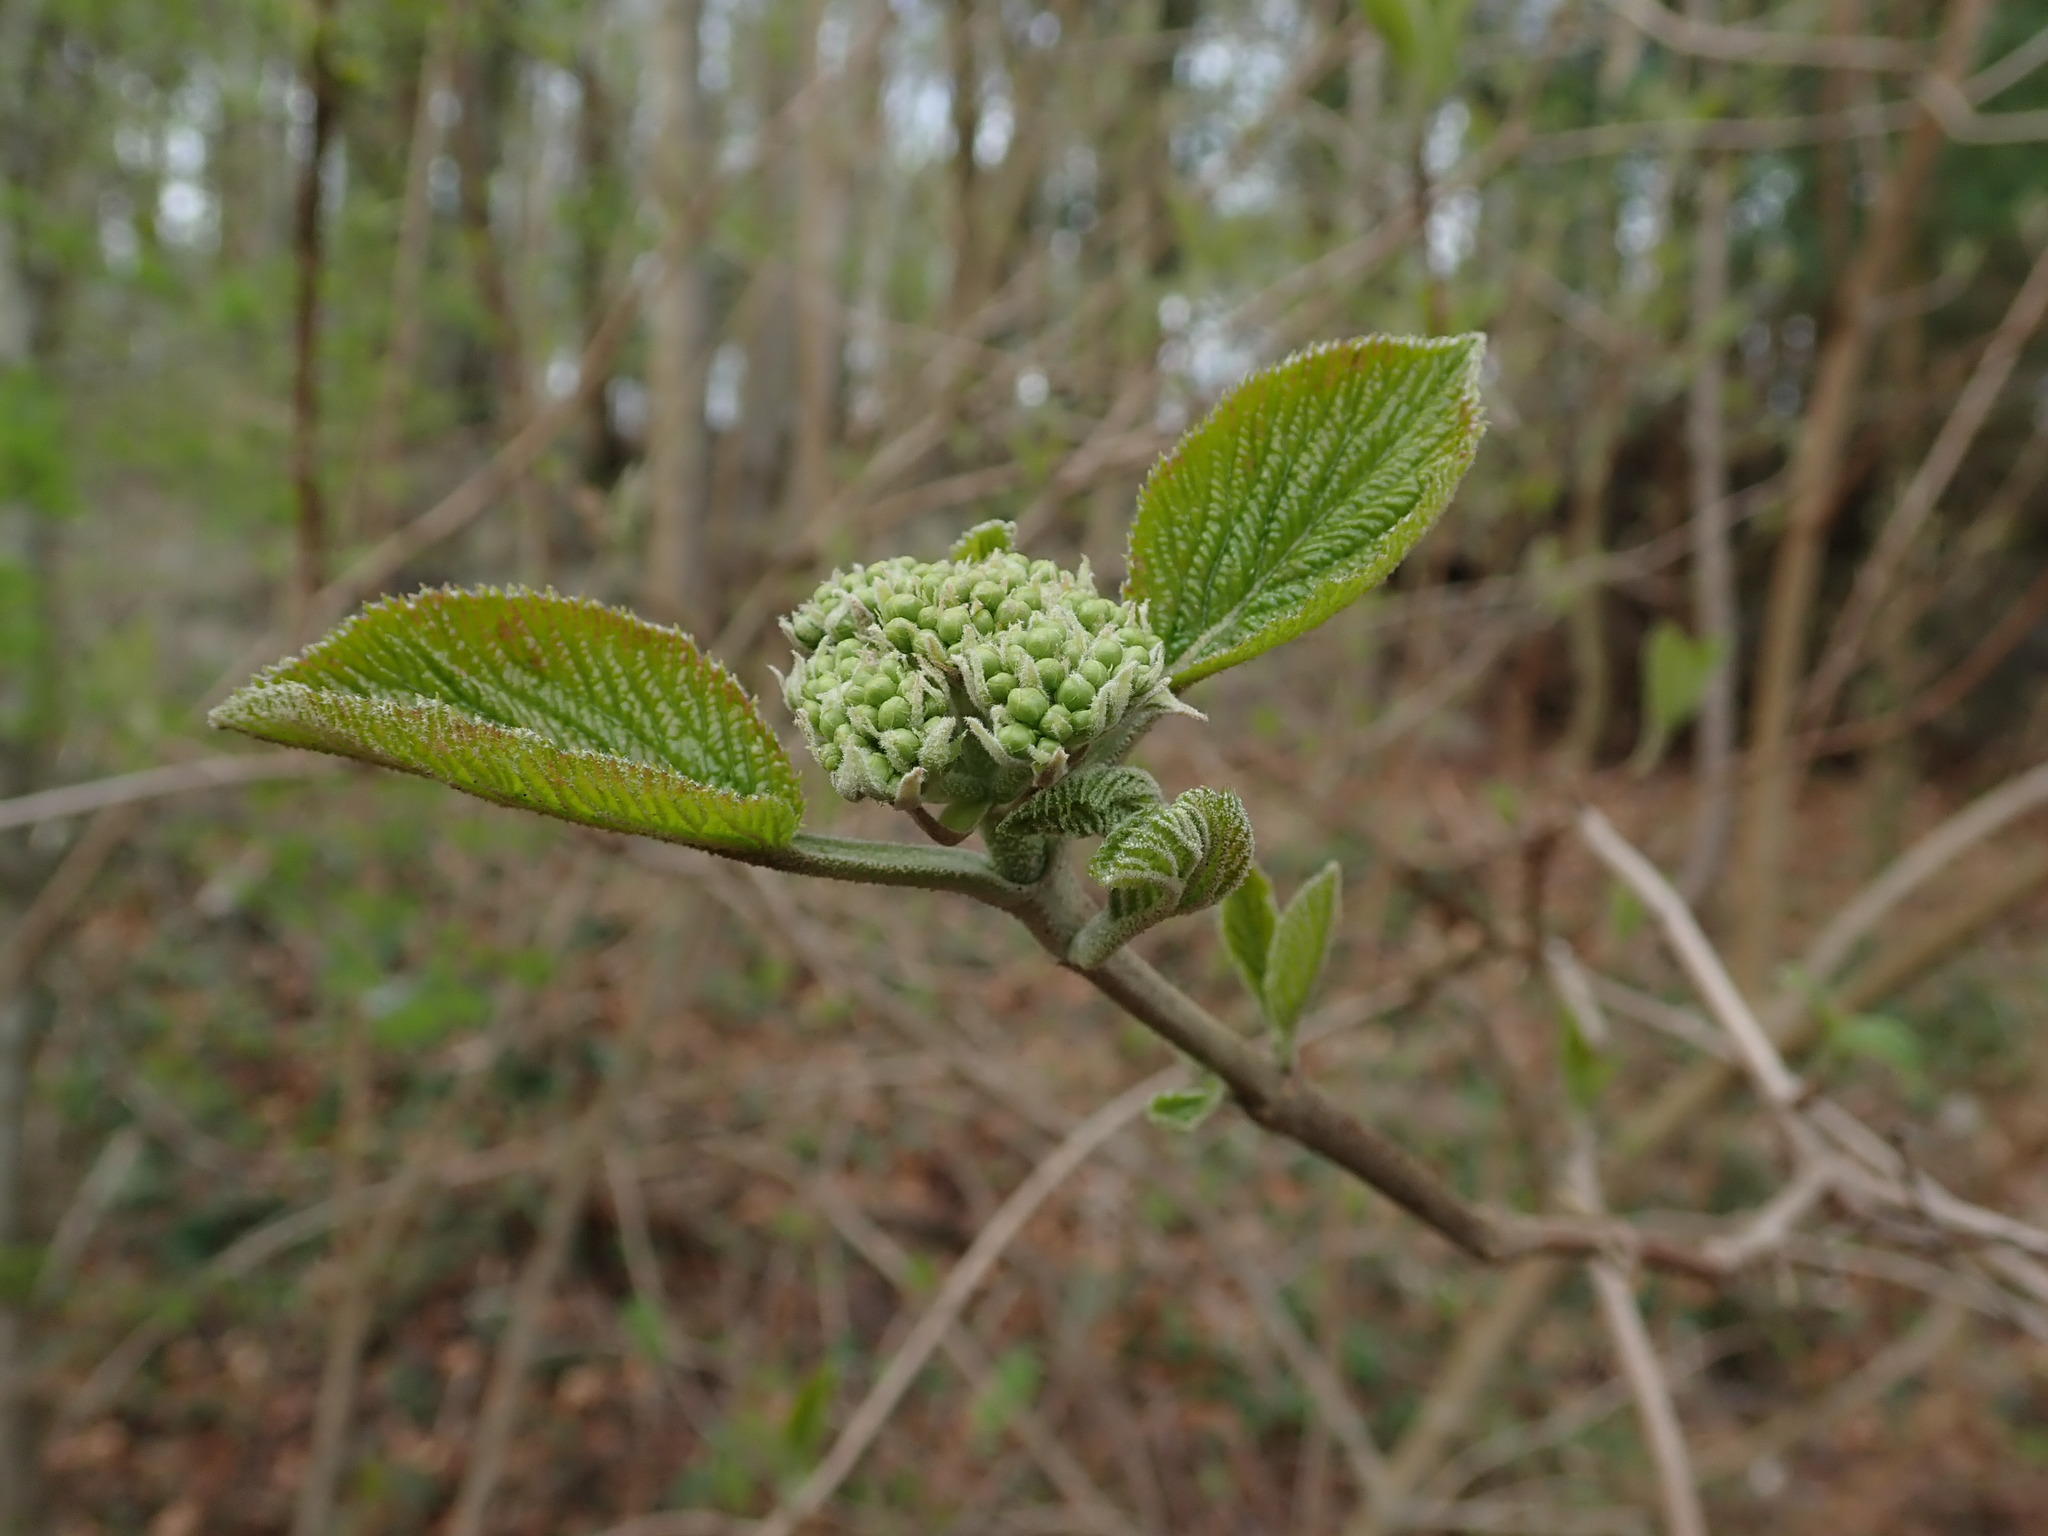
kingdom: Plantae
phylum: Tracheophyta
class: Magnoliopsida
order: Dipsacales
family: Viburnaceae
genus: Viburnum
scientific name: Viburnum lantana
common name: Wayfaring tree
